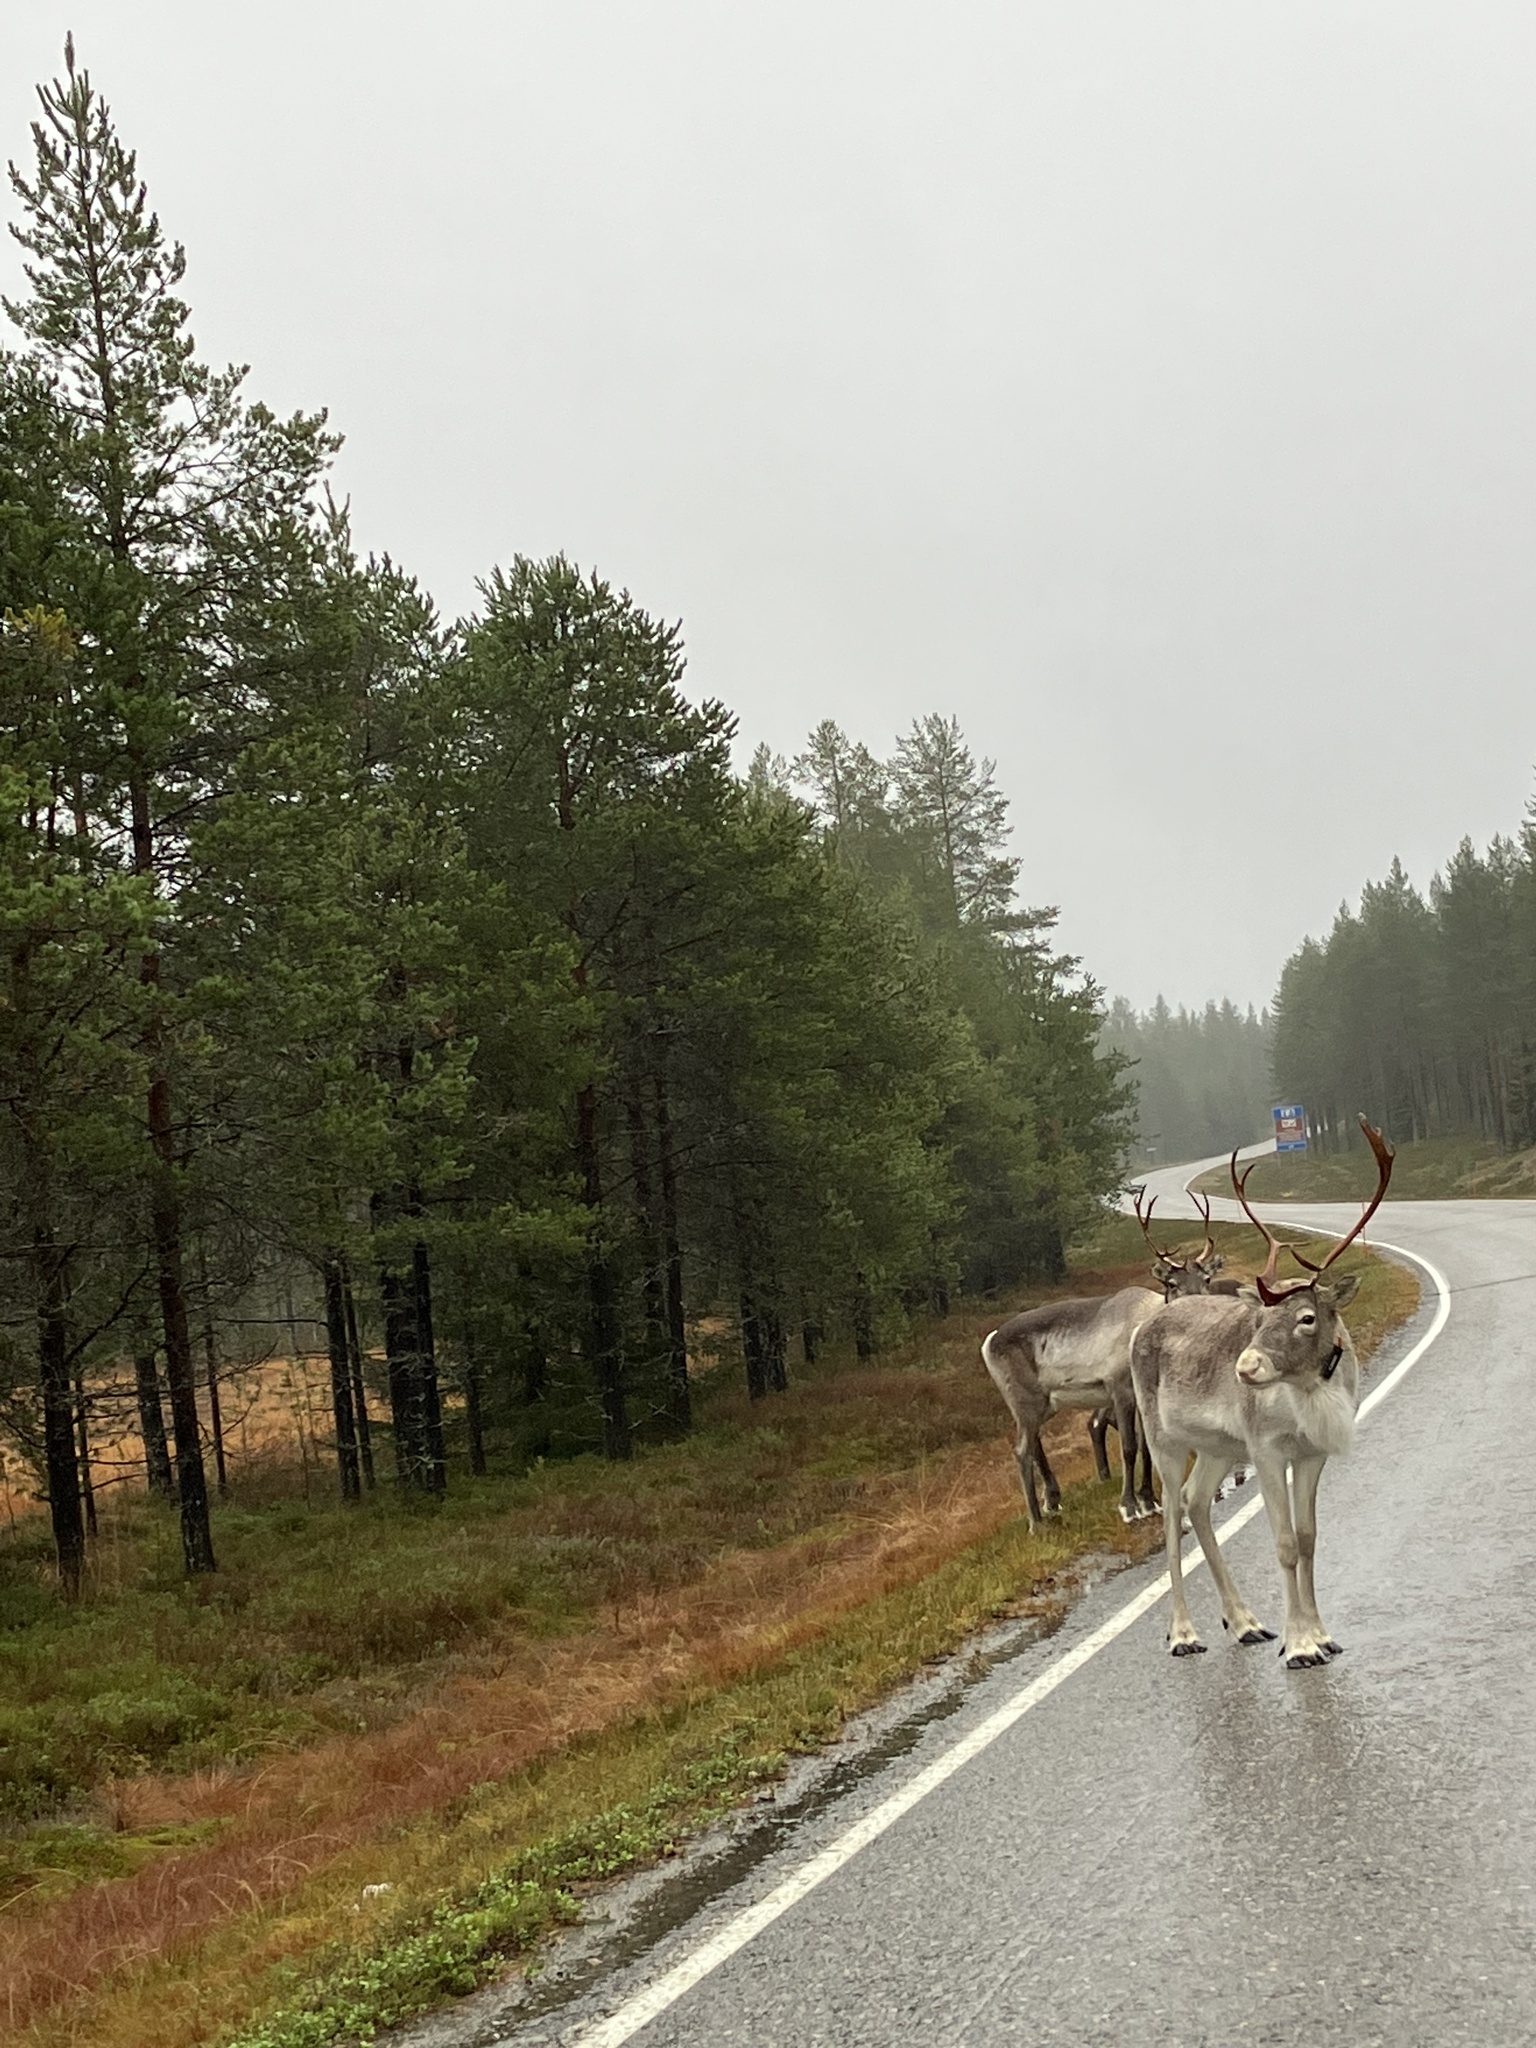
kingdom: Animalia
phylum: Chordata
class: Mammalia
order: Artiodactyla
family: Cervidae
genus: Rangifer
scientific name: Rangifer tarandus
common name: Reindeer
